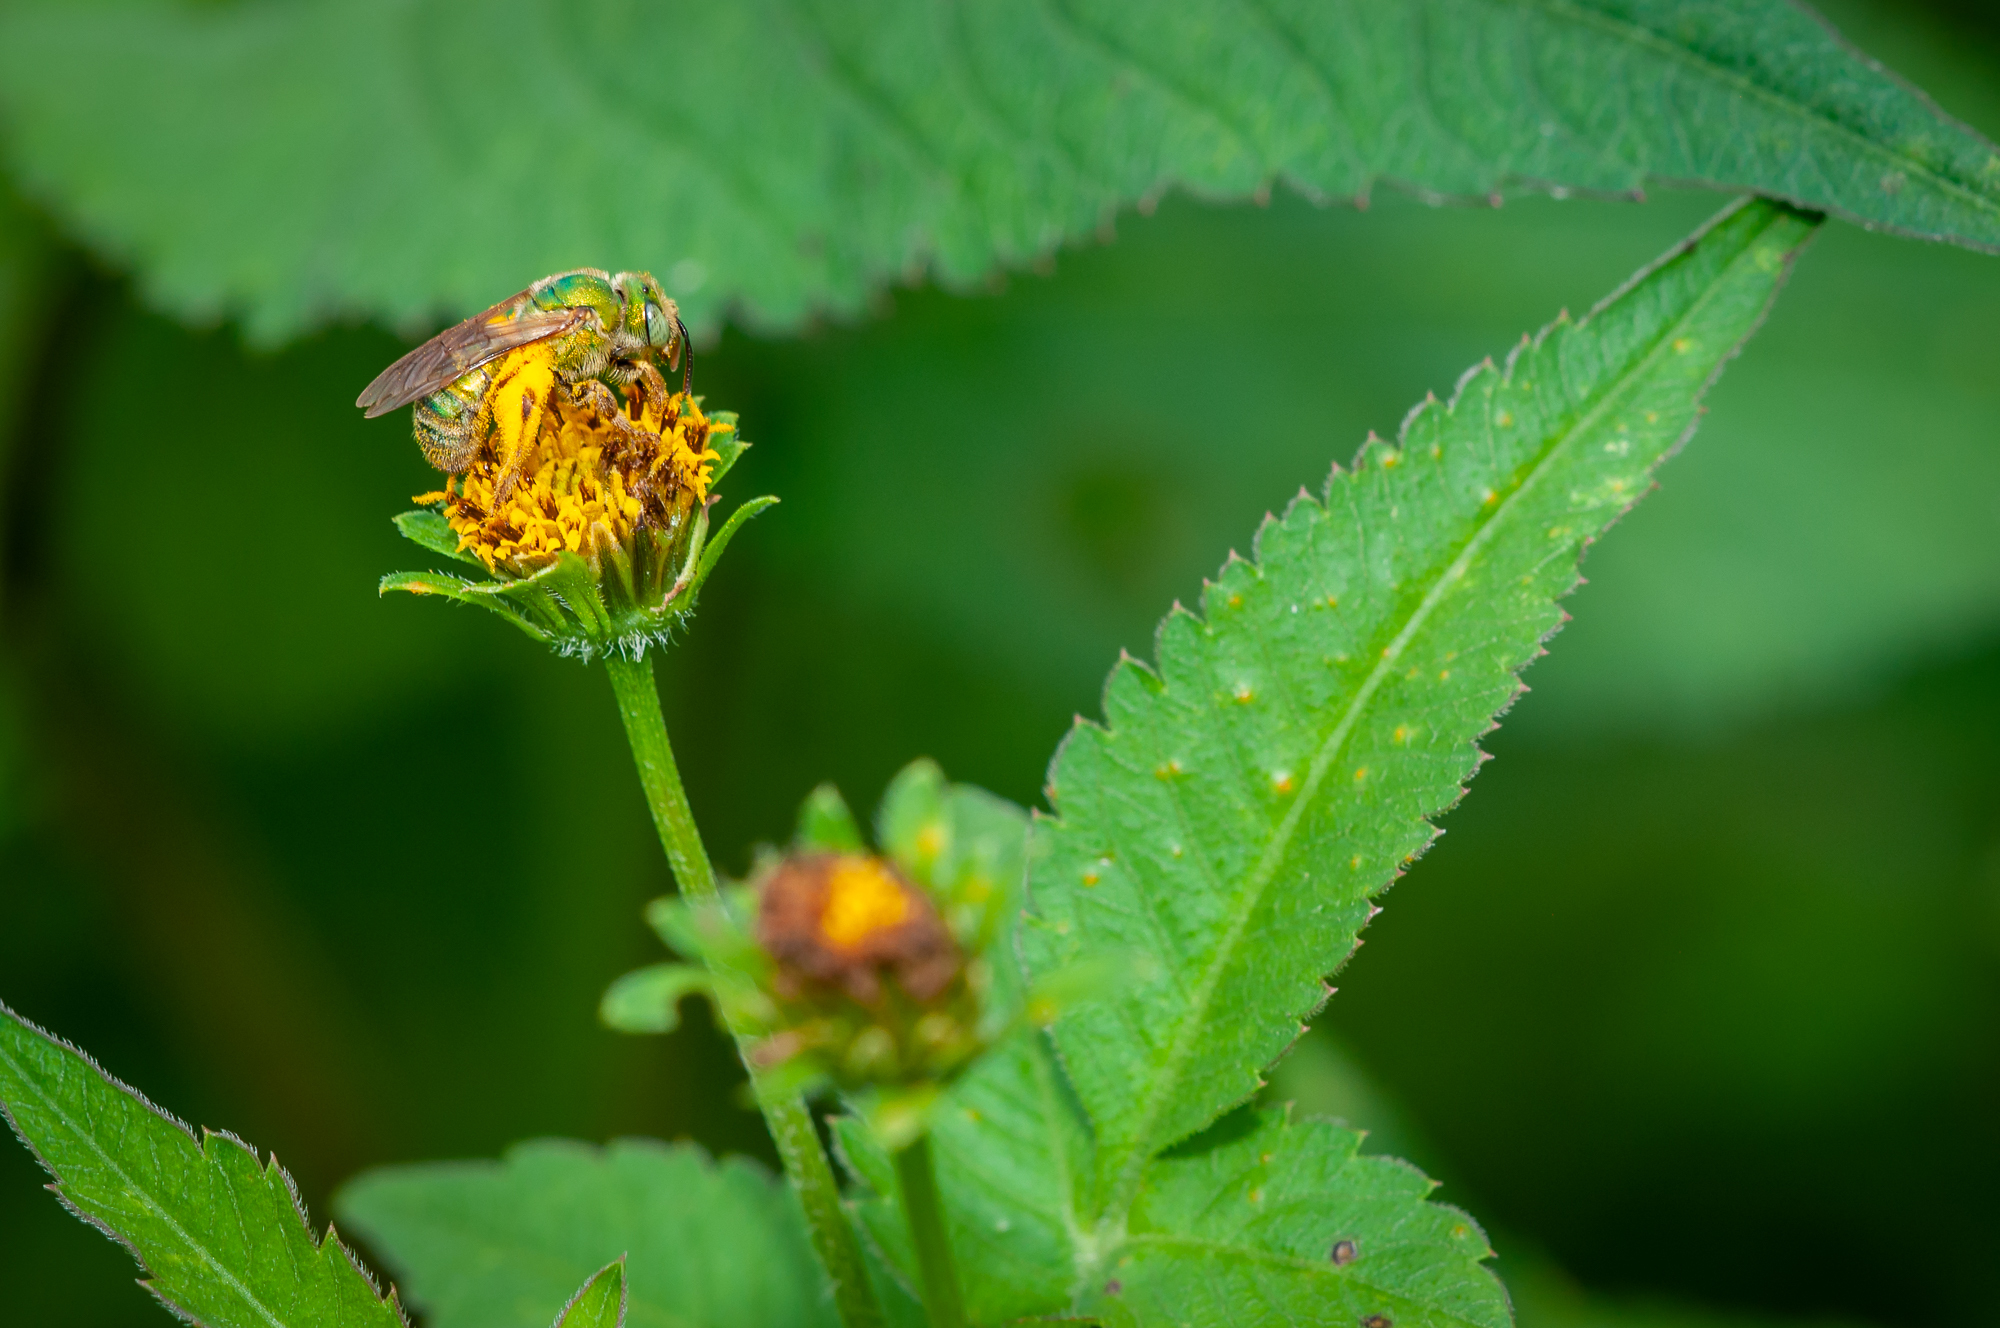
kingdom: Animalia
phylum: Arthropoda
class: Insecta
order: Hymenoptera
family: Halictidae
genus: Agapostemon
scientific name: Agapostemon
